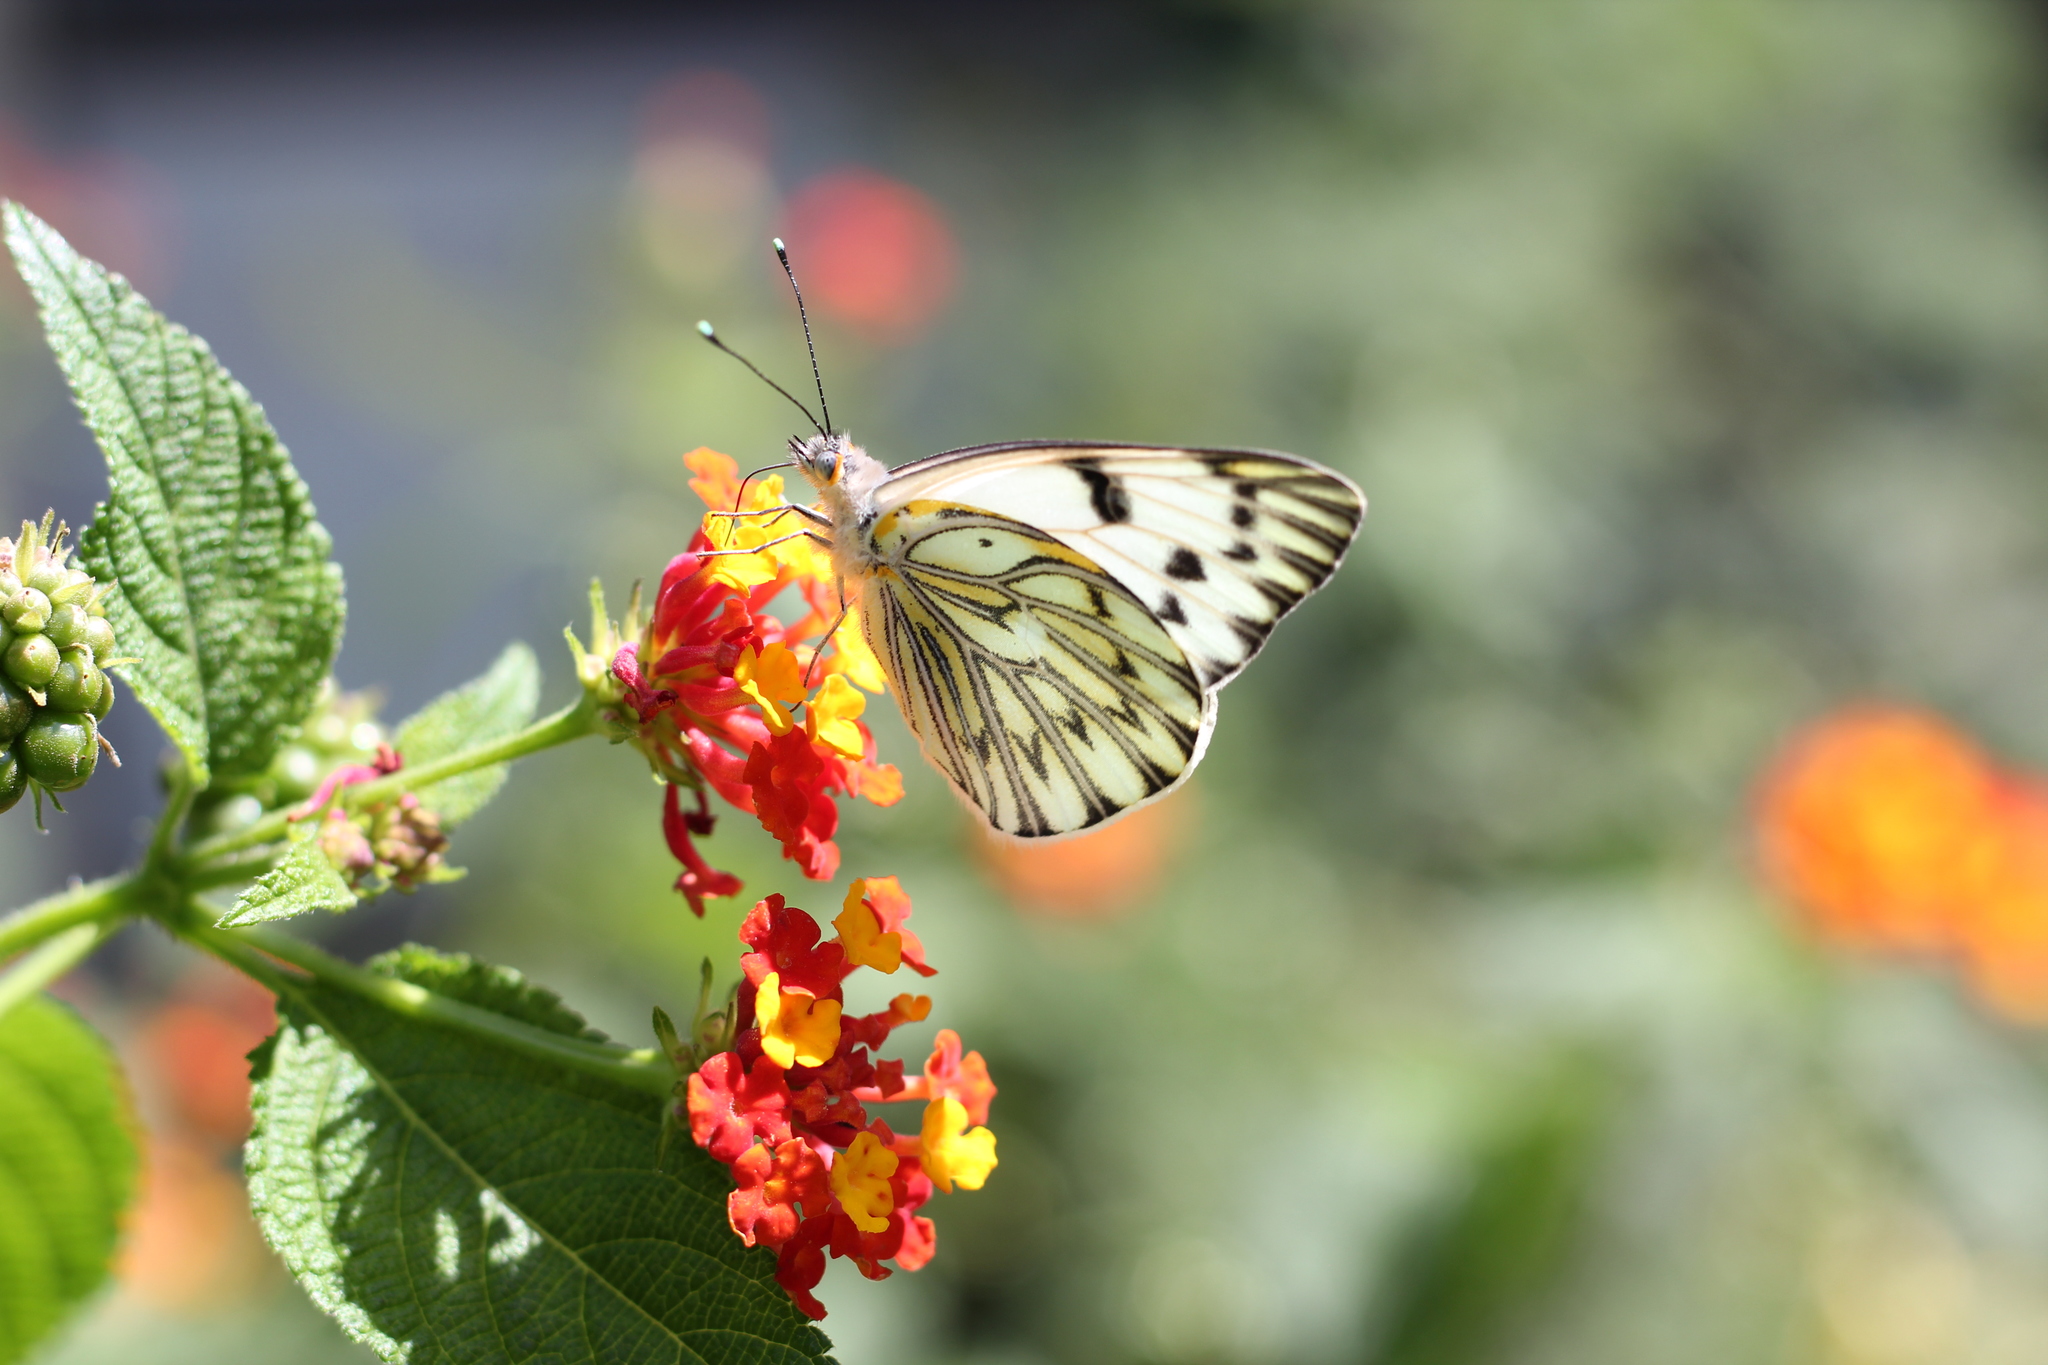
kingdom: Animalia
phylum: Arthropoda
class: Insecta
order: Lepidoptera
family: Pieridae
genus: Tatochila
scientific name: Tatochila autodice
